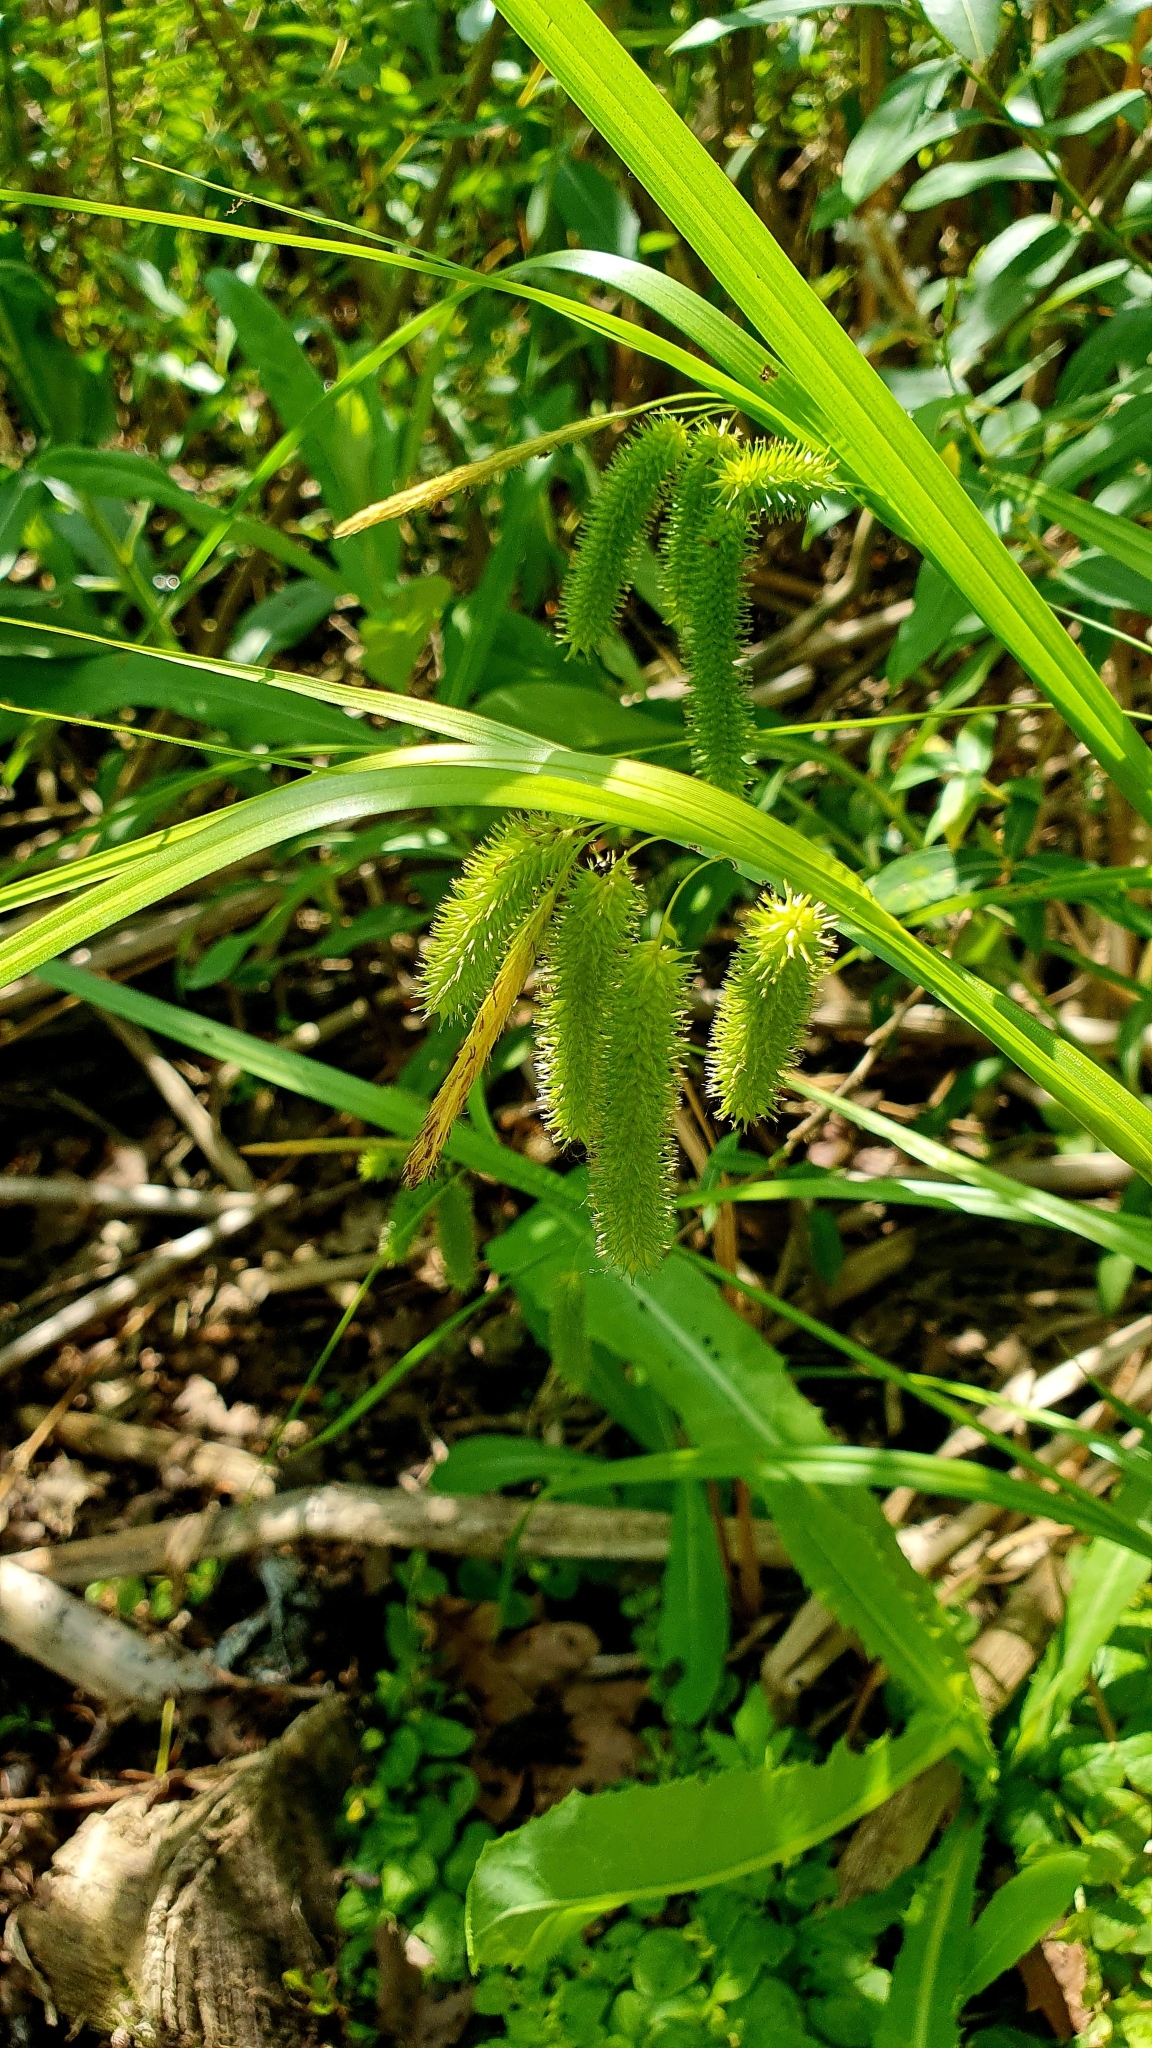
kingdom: Plantae
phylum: Tracheophyta
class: Liliopsida
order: Poales
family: Cyperaceae
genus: Carex
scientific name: Carex pseudocyperus
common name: Cyperus sedge
